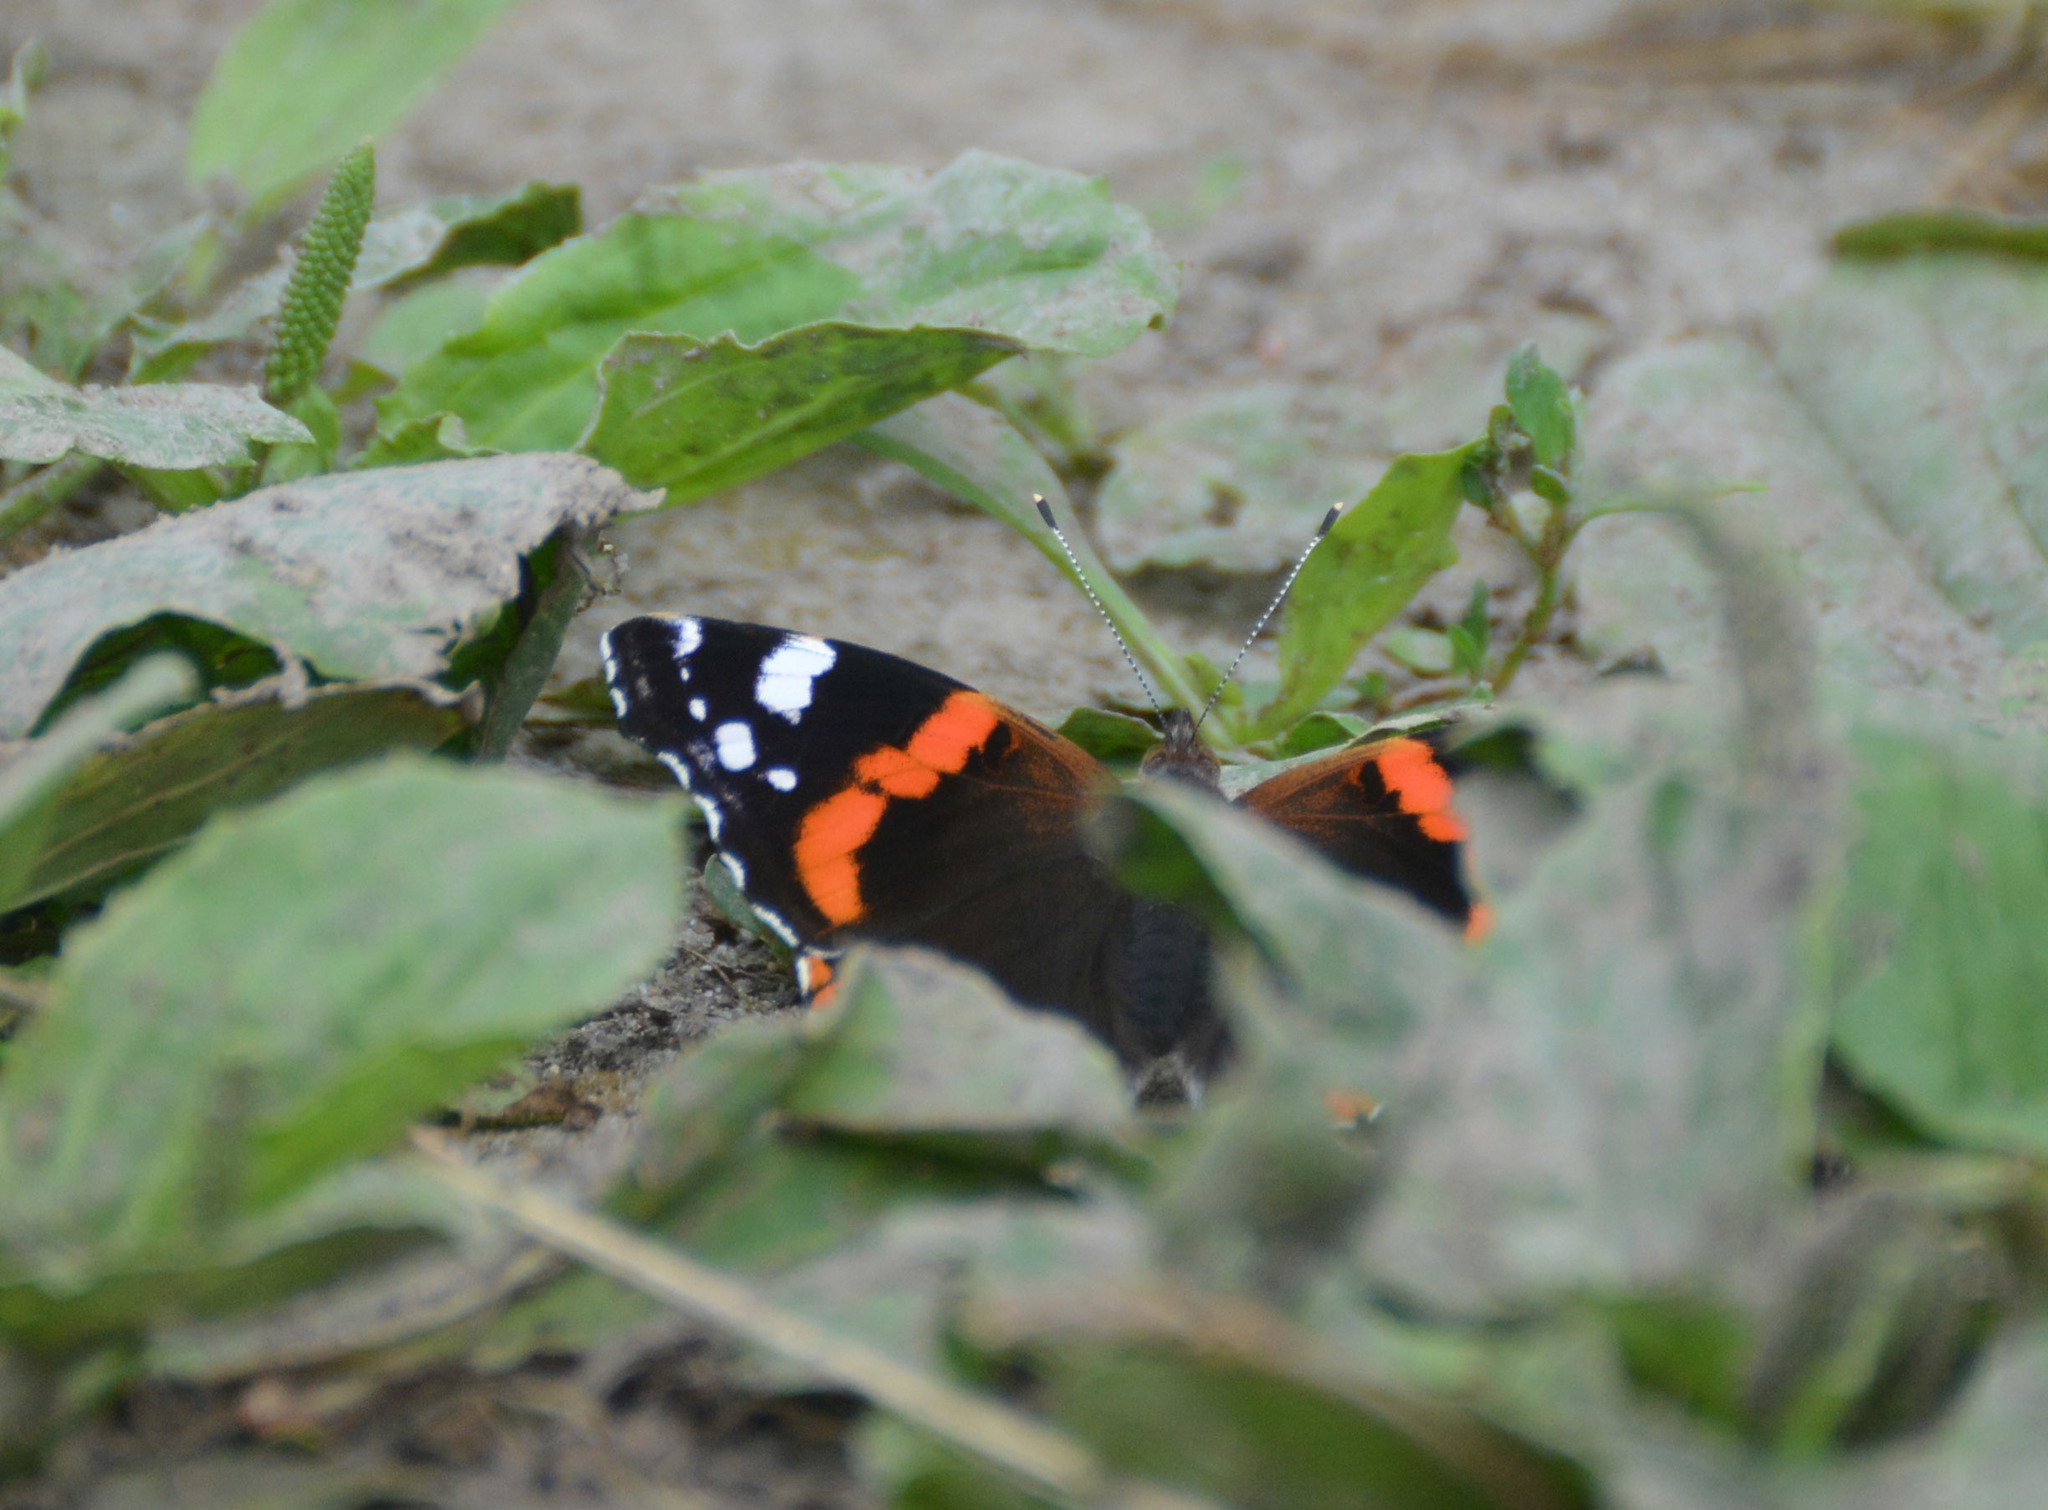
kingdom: Animalia
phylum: Arthropoda
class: Insecta
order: Lepidoptera
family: Nymphalidae
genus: Vanessa
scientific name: Vanessa atalanta
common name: Red admiral
